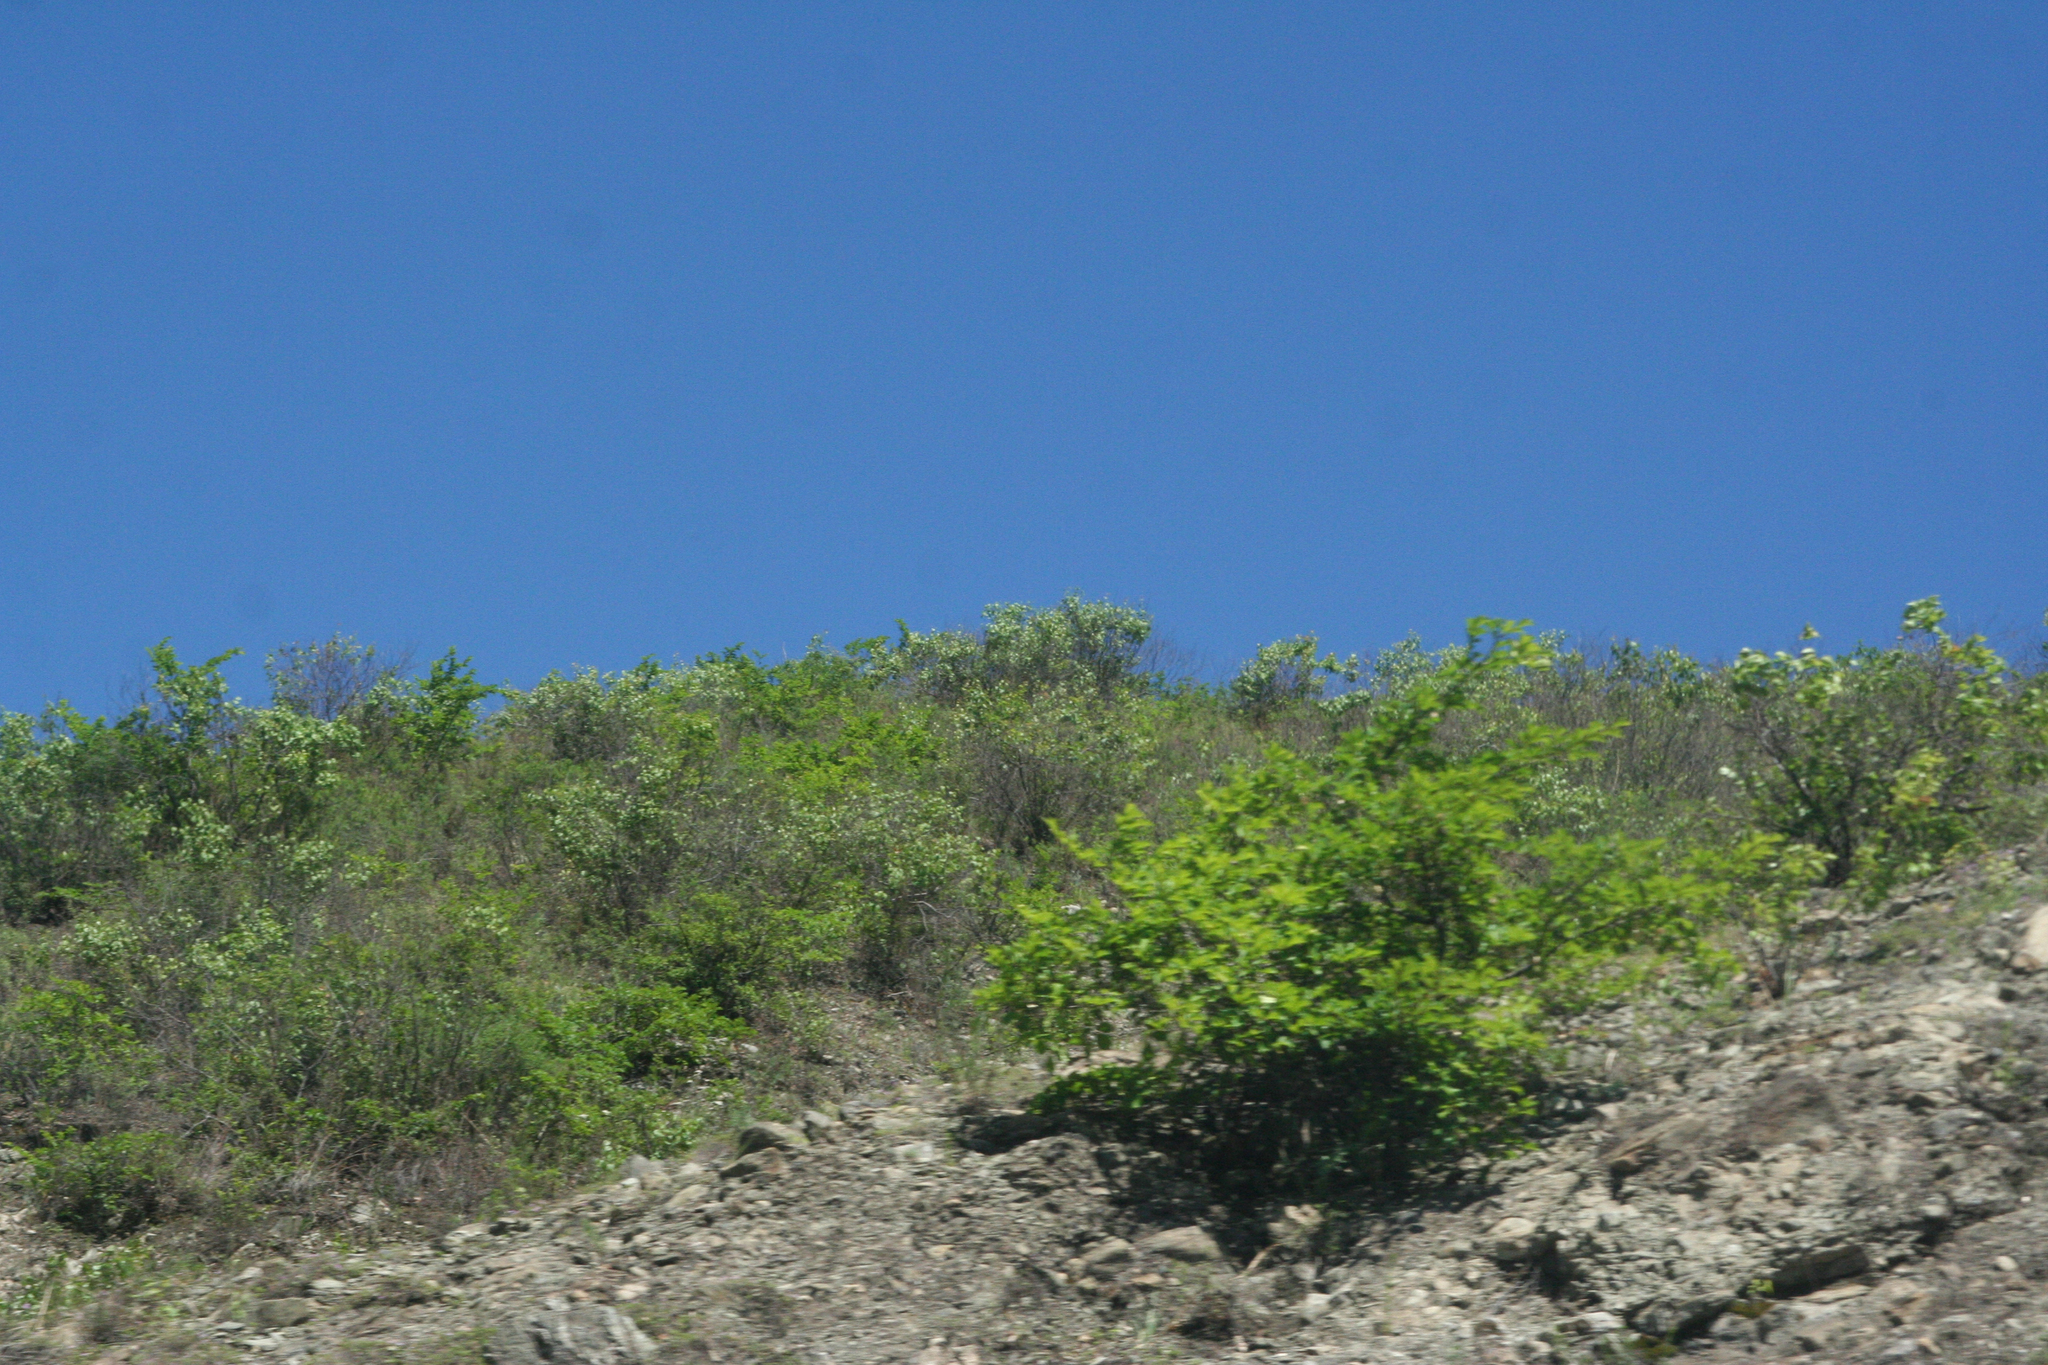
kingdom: Plantae
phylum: Tracheophyta
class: Magnoliopsida
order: Rosales
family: Rosaceae
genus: Prunus
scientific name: Prunus sibirica
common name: Siberian apricot
